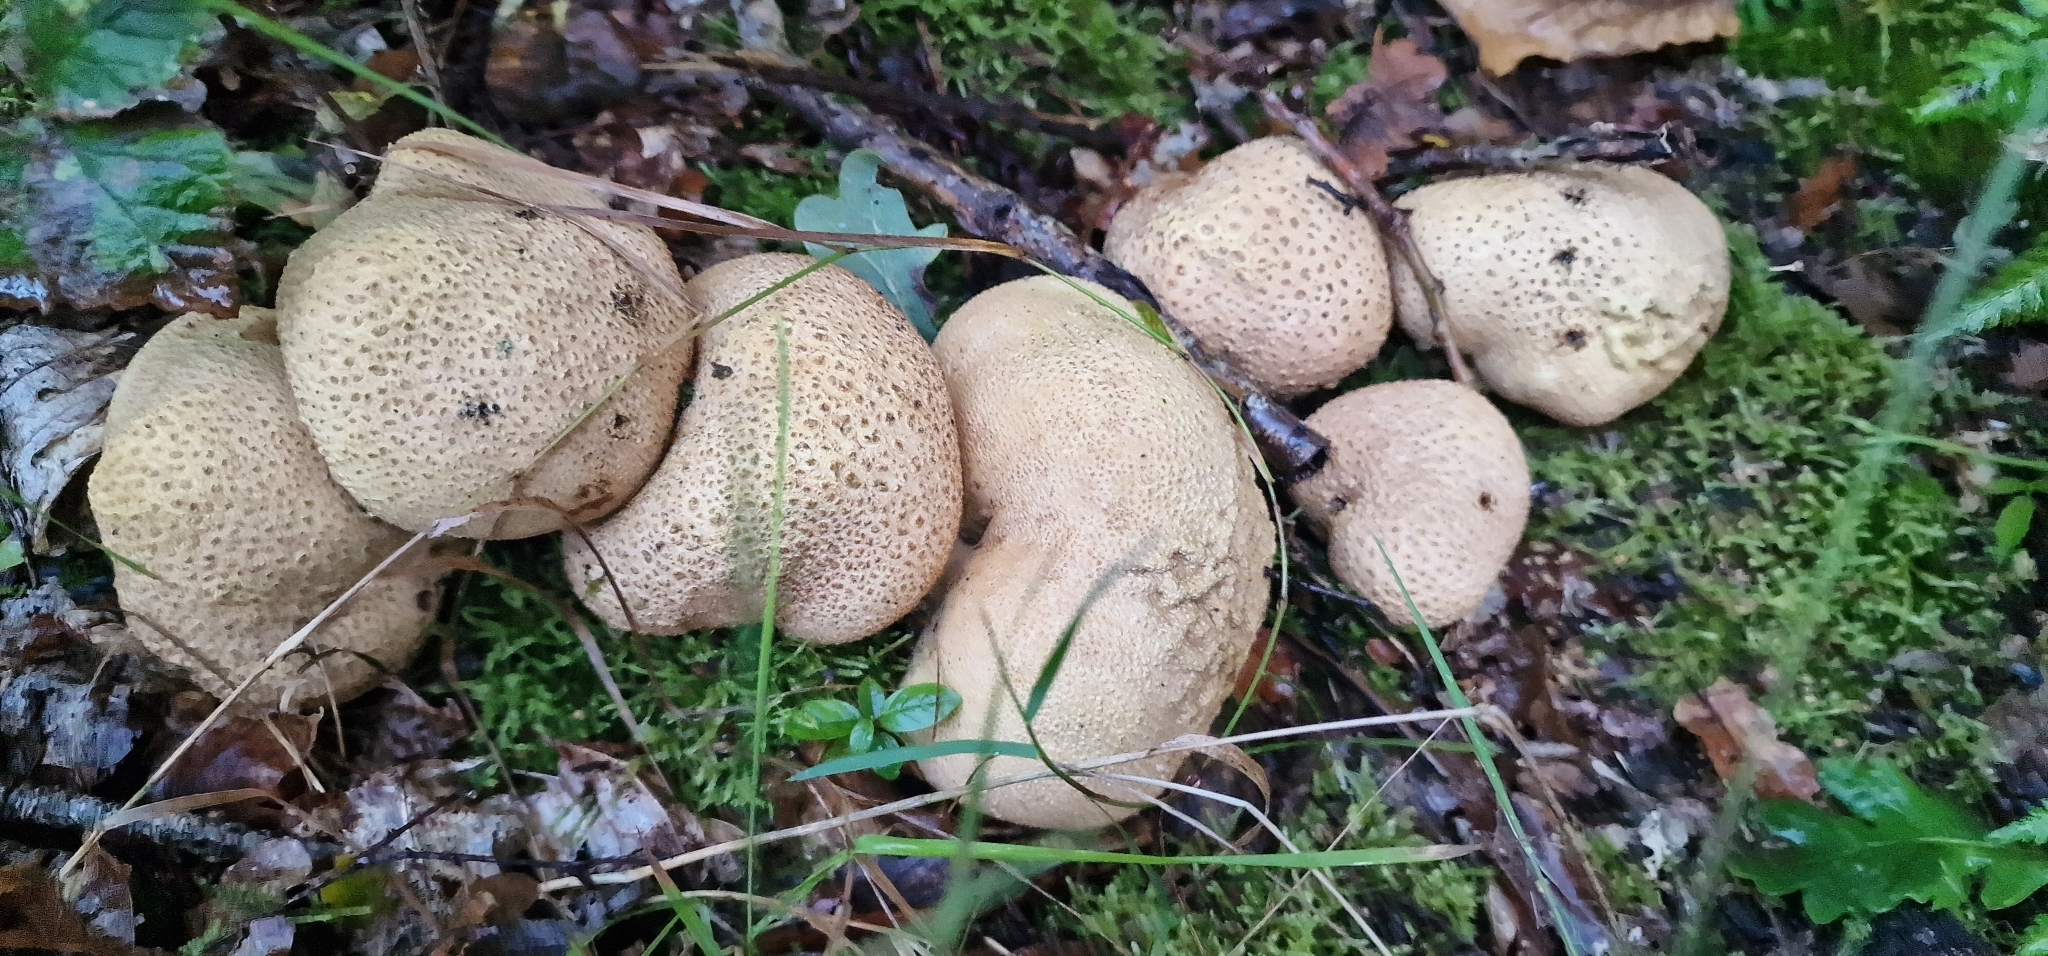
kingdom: Fungi
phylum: Basidiomycota
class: Agaricomycetes
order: Boletales
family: Sclerodermataceae
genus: Scleroderma
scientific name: Scleroderma citrinum
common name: Common earthball
